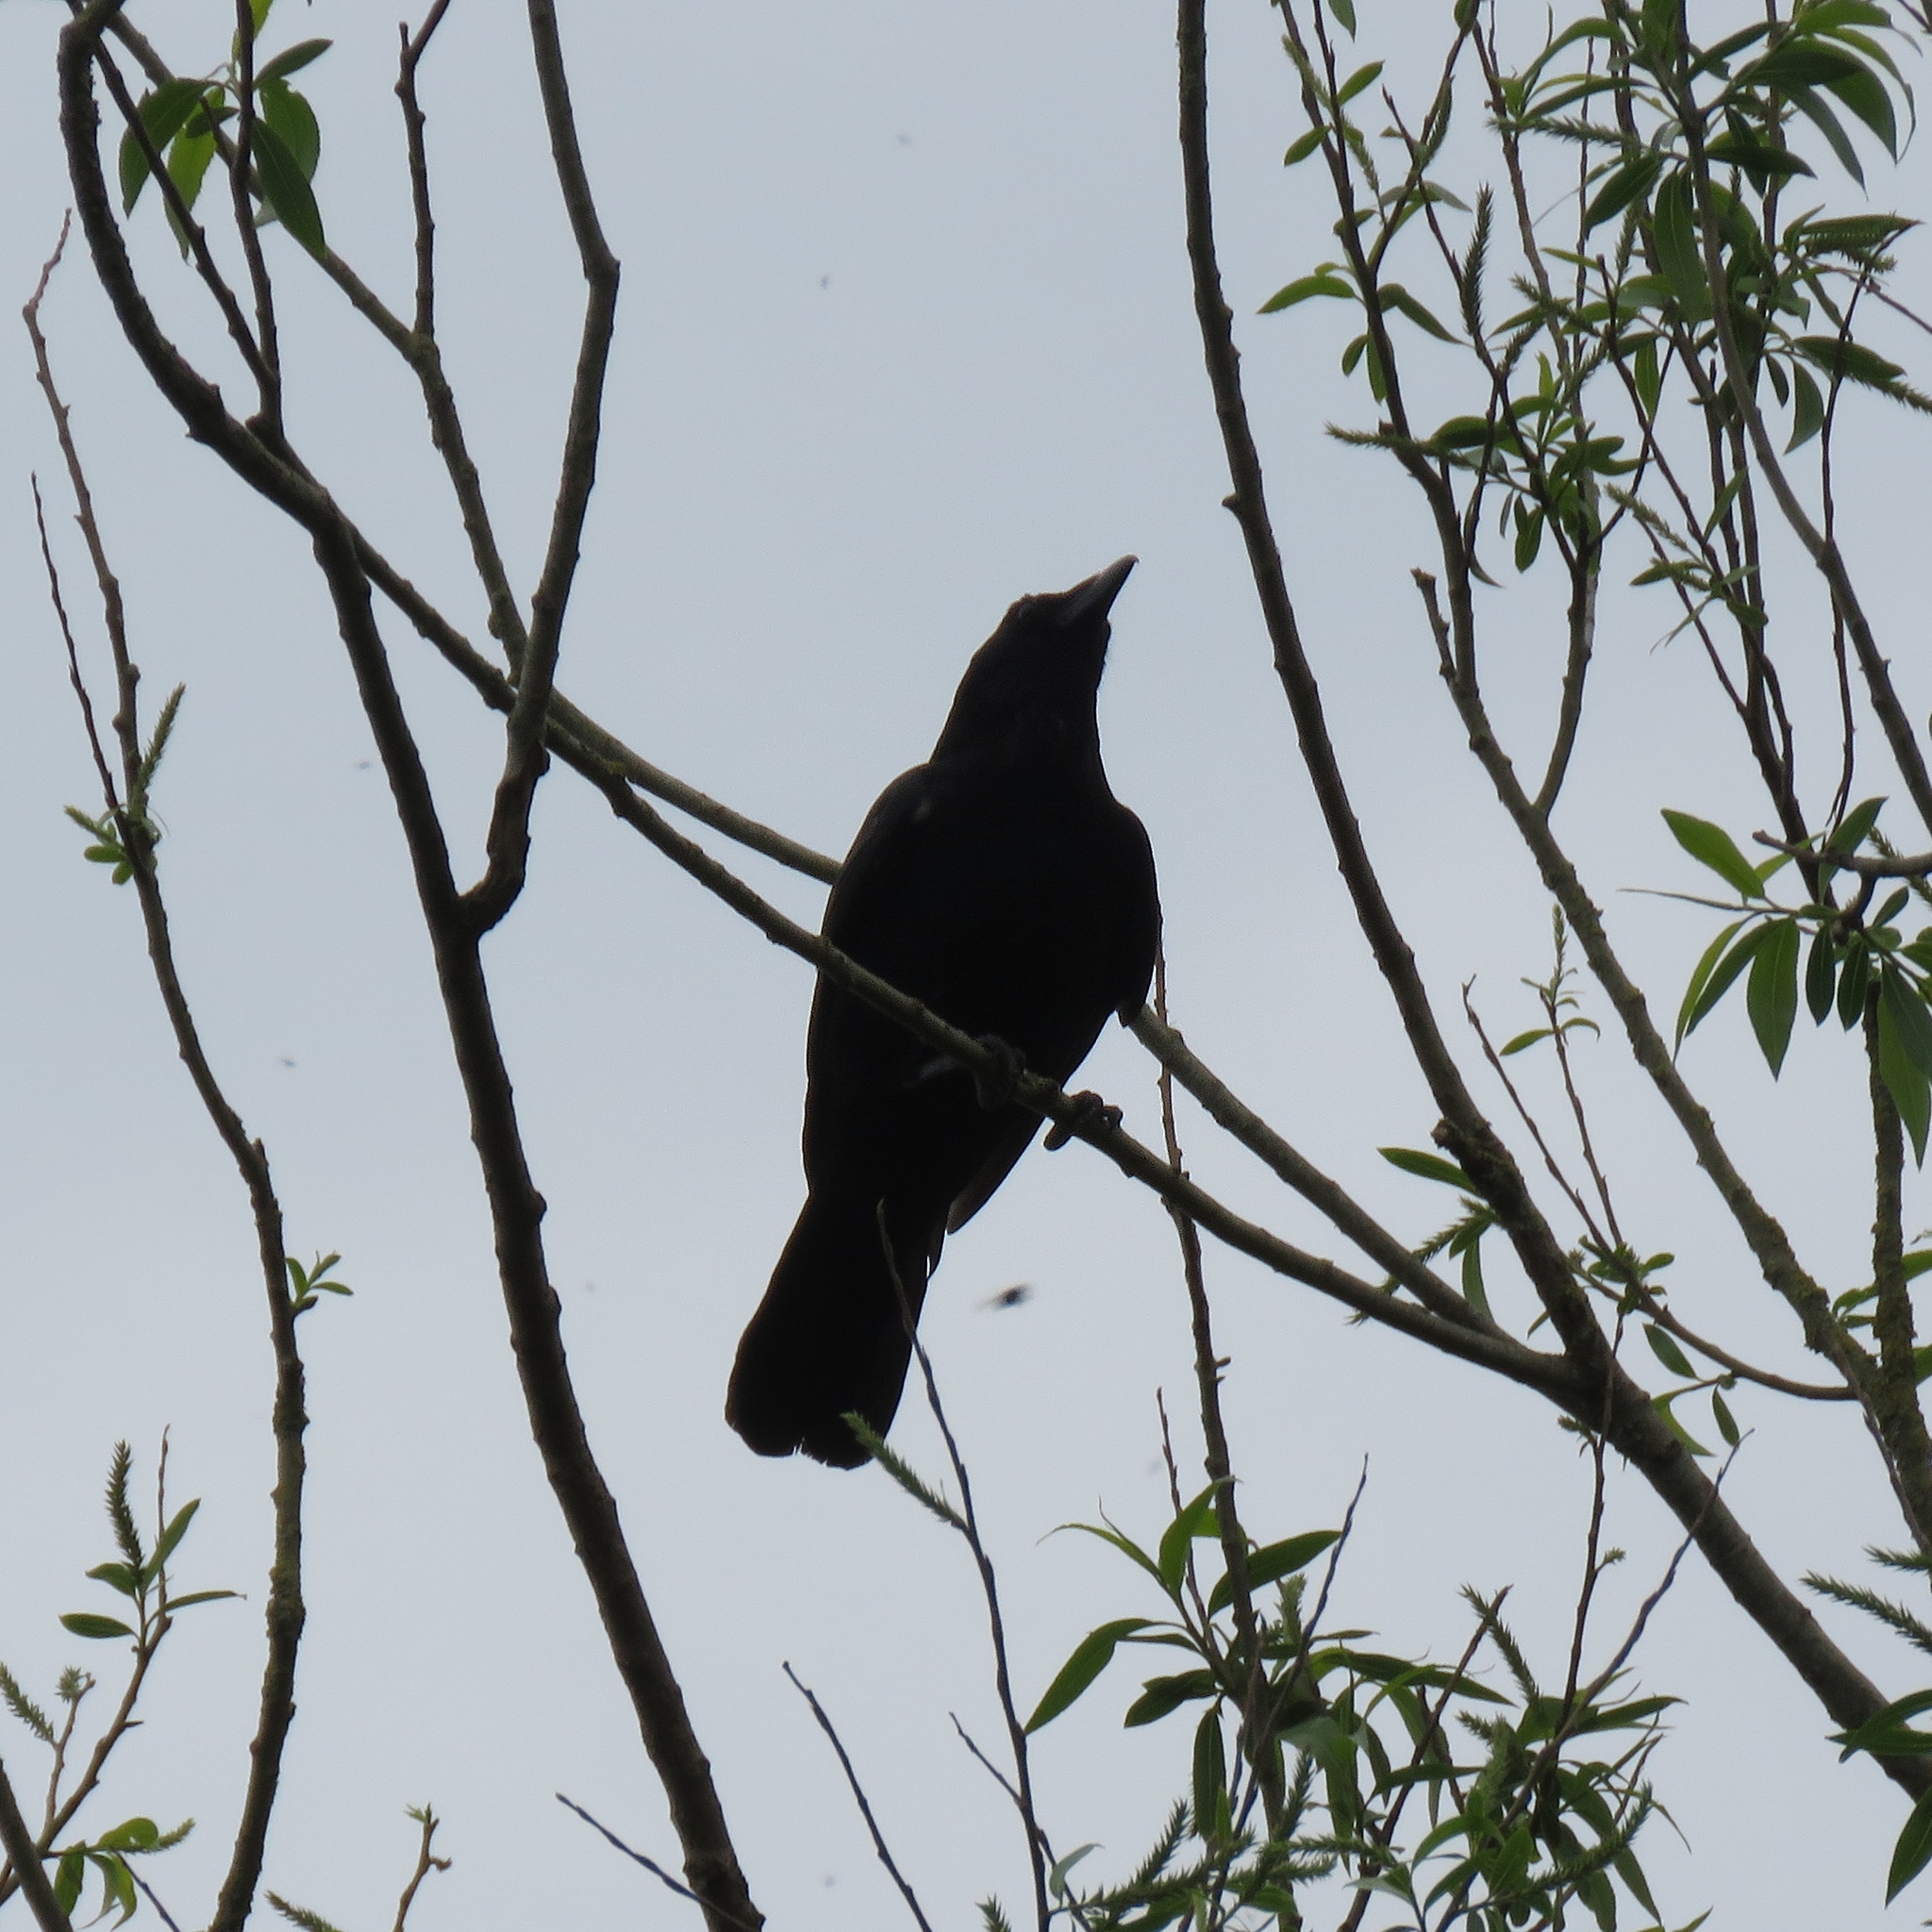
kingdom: Animalia
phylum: Chordata
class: Aves
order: Passeriformes
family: Corvidae
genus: Corvus
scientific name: Corvus corone
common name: Carrion crow
